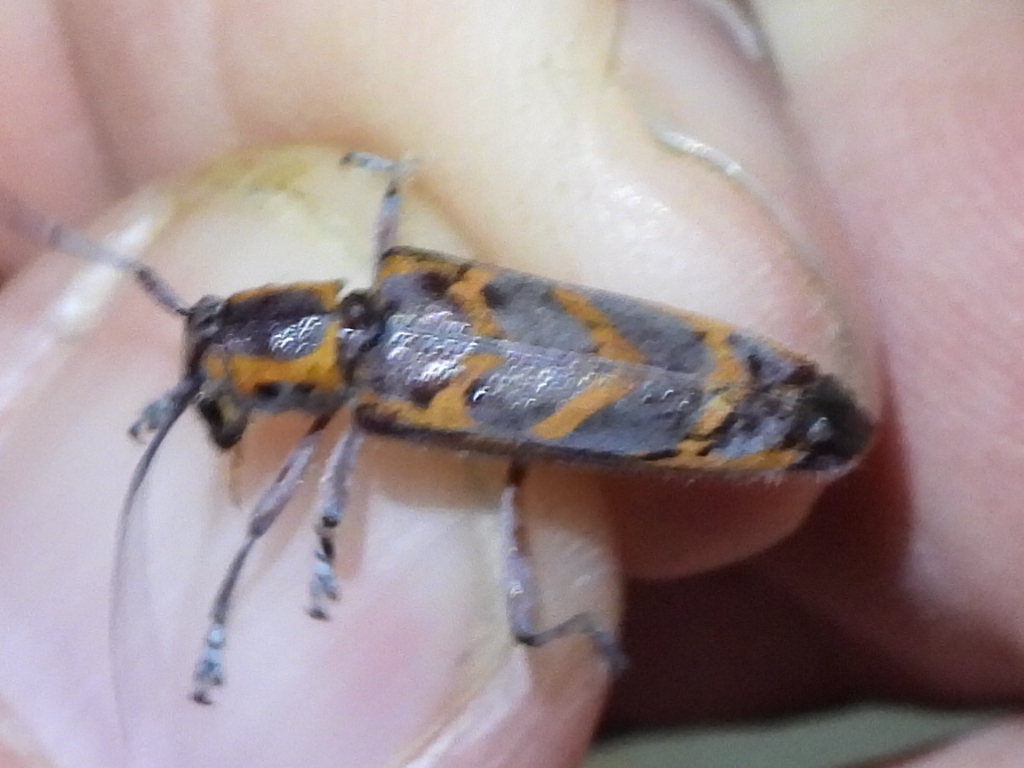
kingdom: Animalia
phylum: Arthropoda
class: Insecta
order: Coleoptera
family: Cerambycidae
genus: Saperda
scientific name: Saperda tridentata
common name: Elm borer
